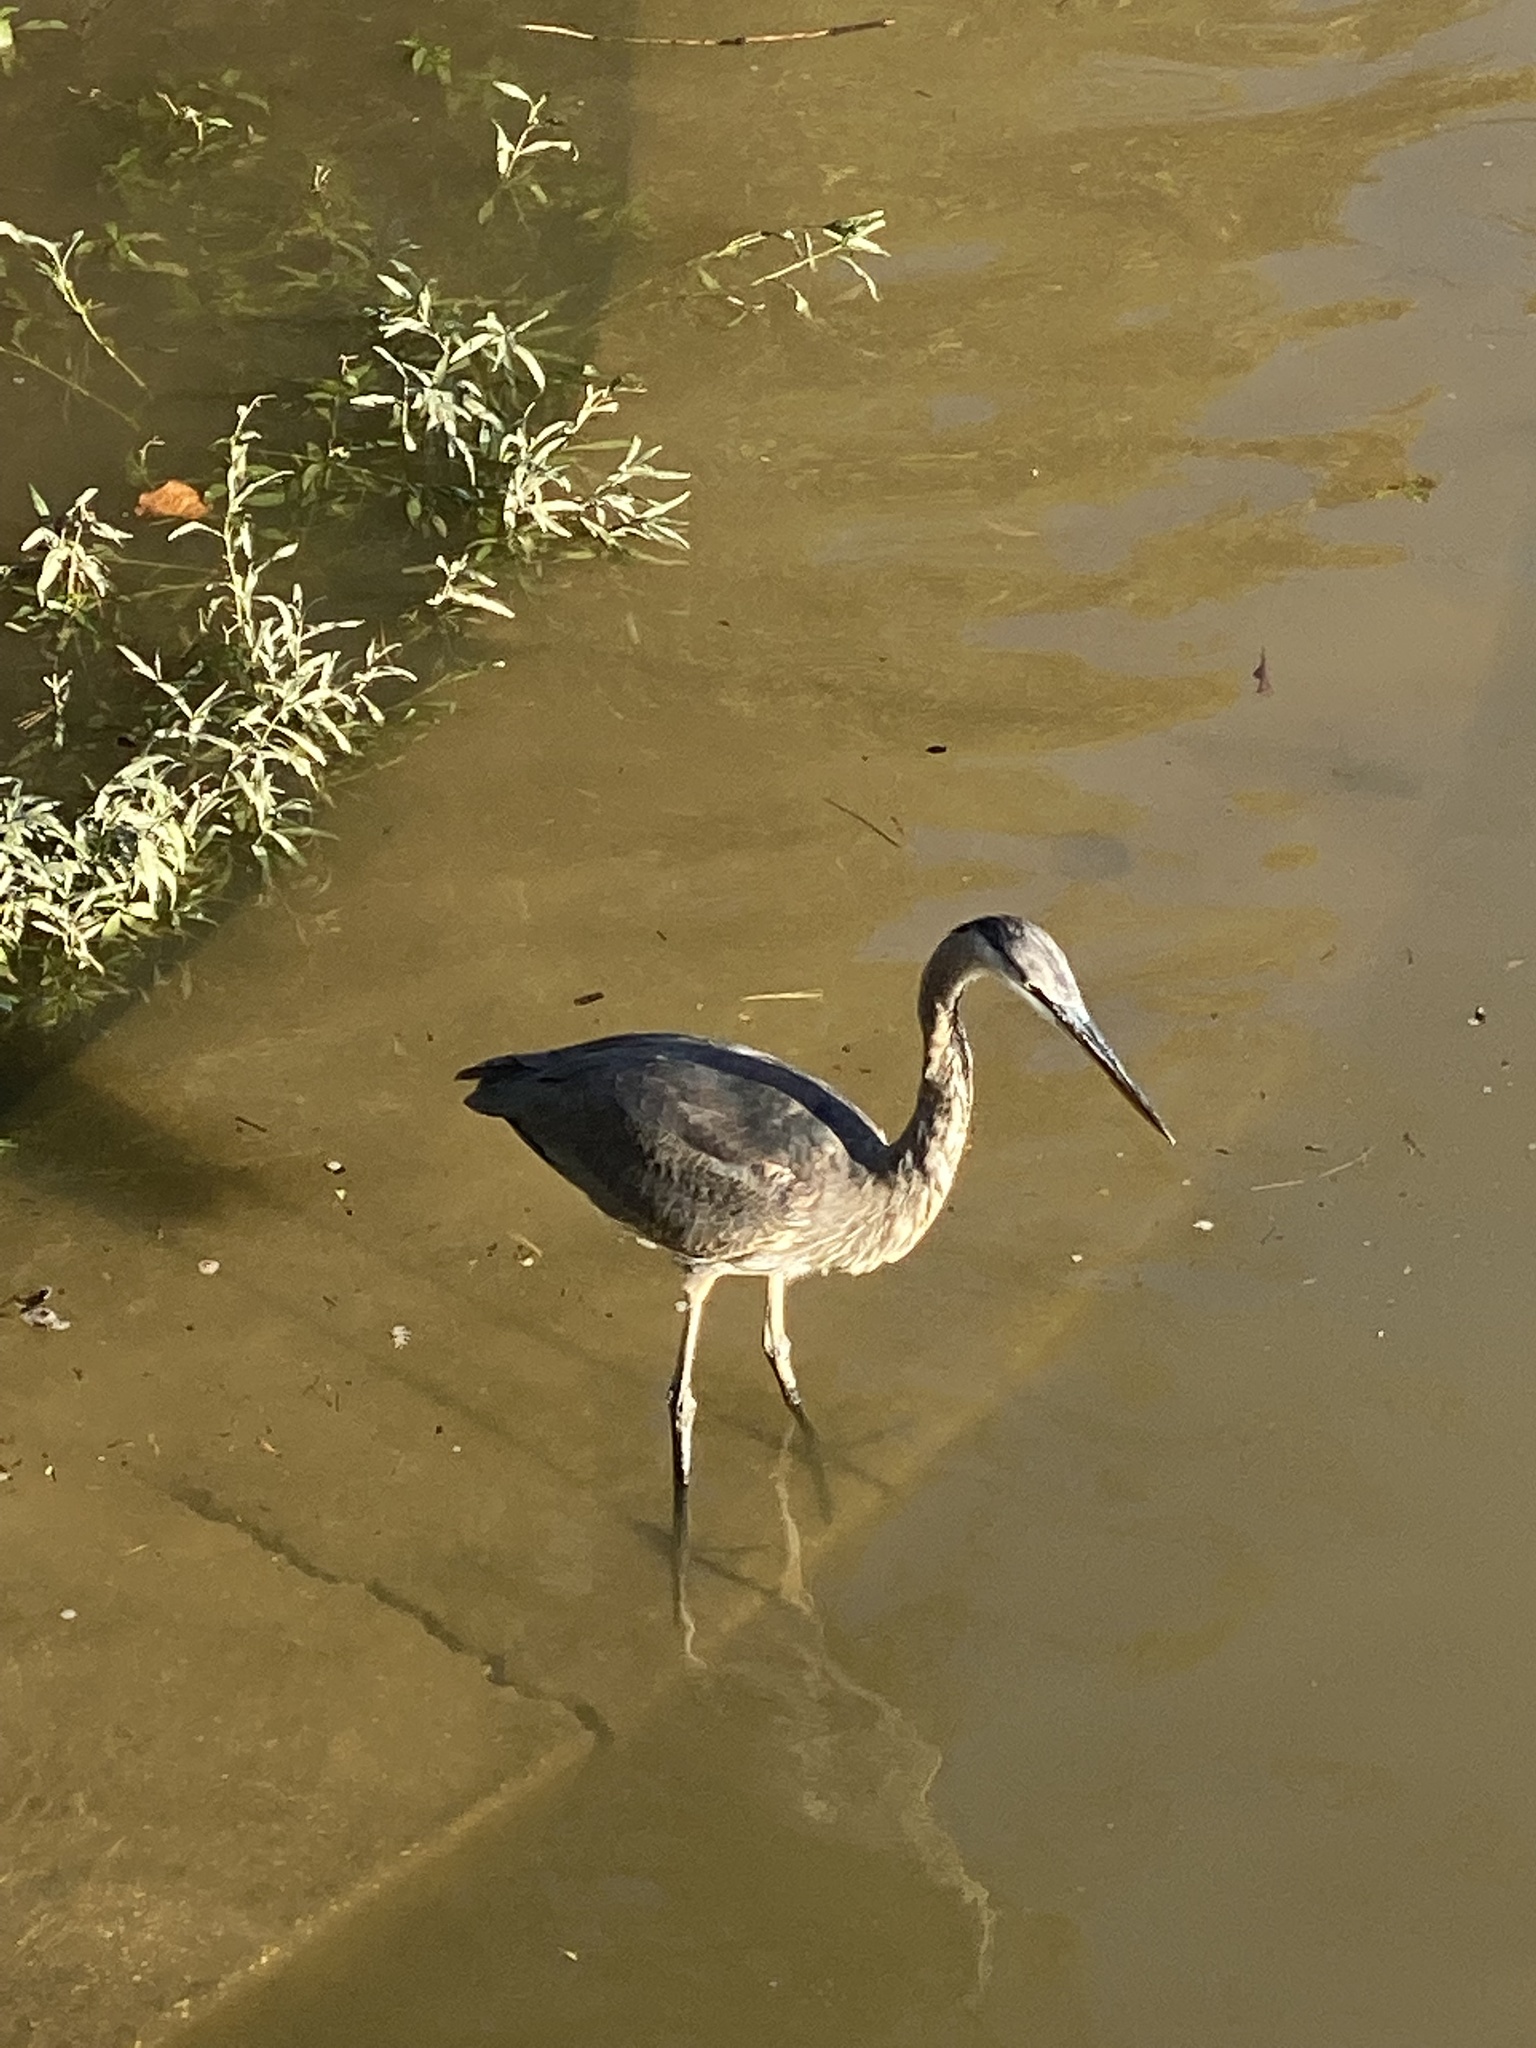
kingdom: Animalia
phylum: Chordata
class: Aves
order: Pelecaniformes
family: Ardeidae
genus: Ardea
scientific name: Ardea herodias
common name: Great blue heron
